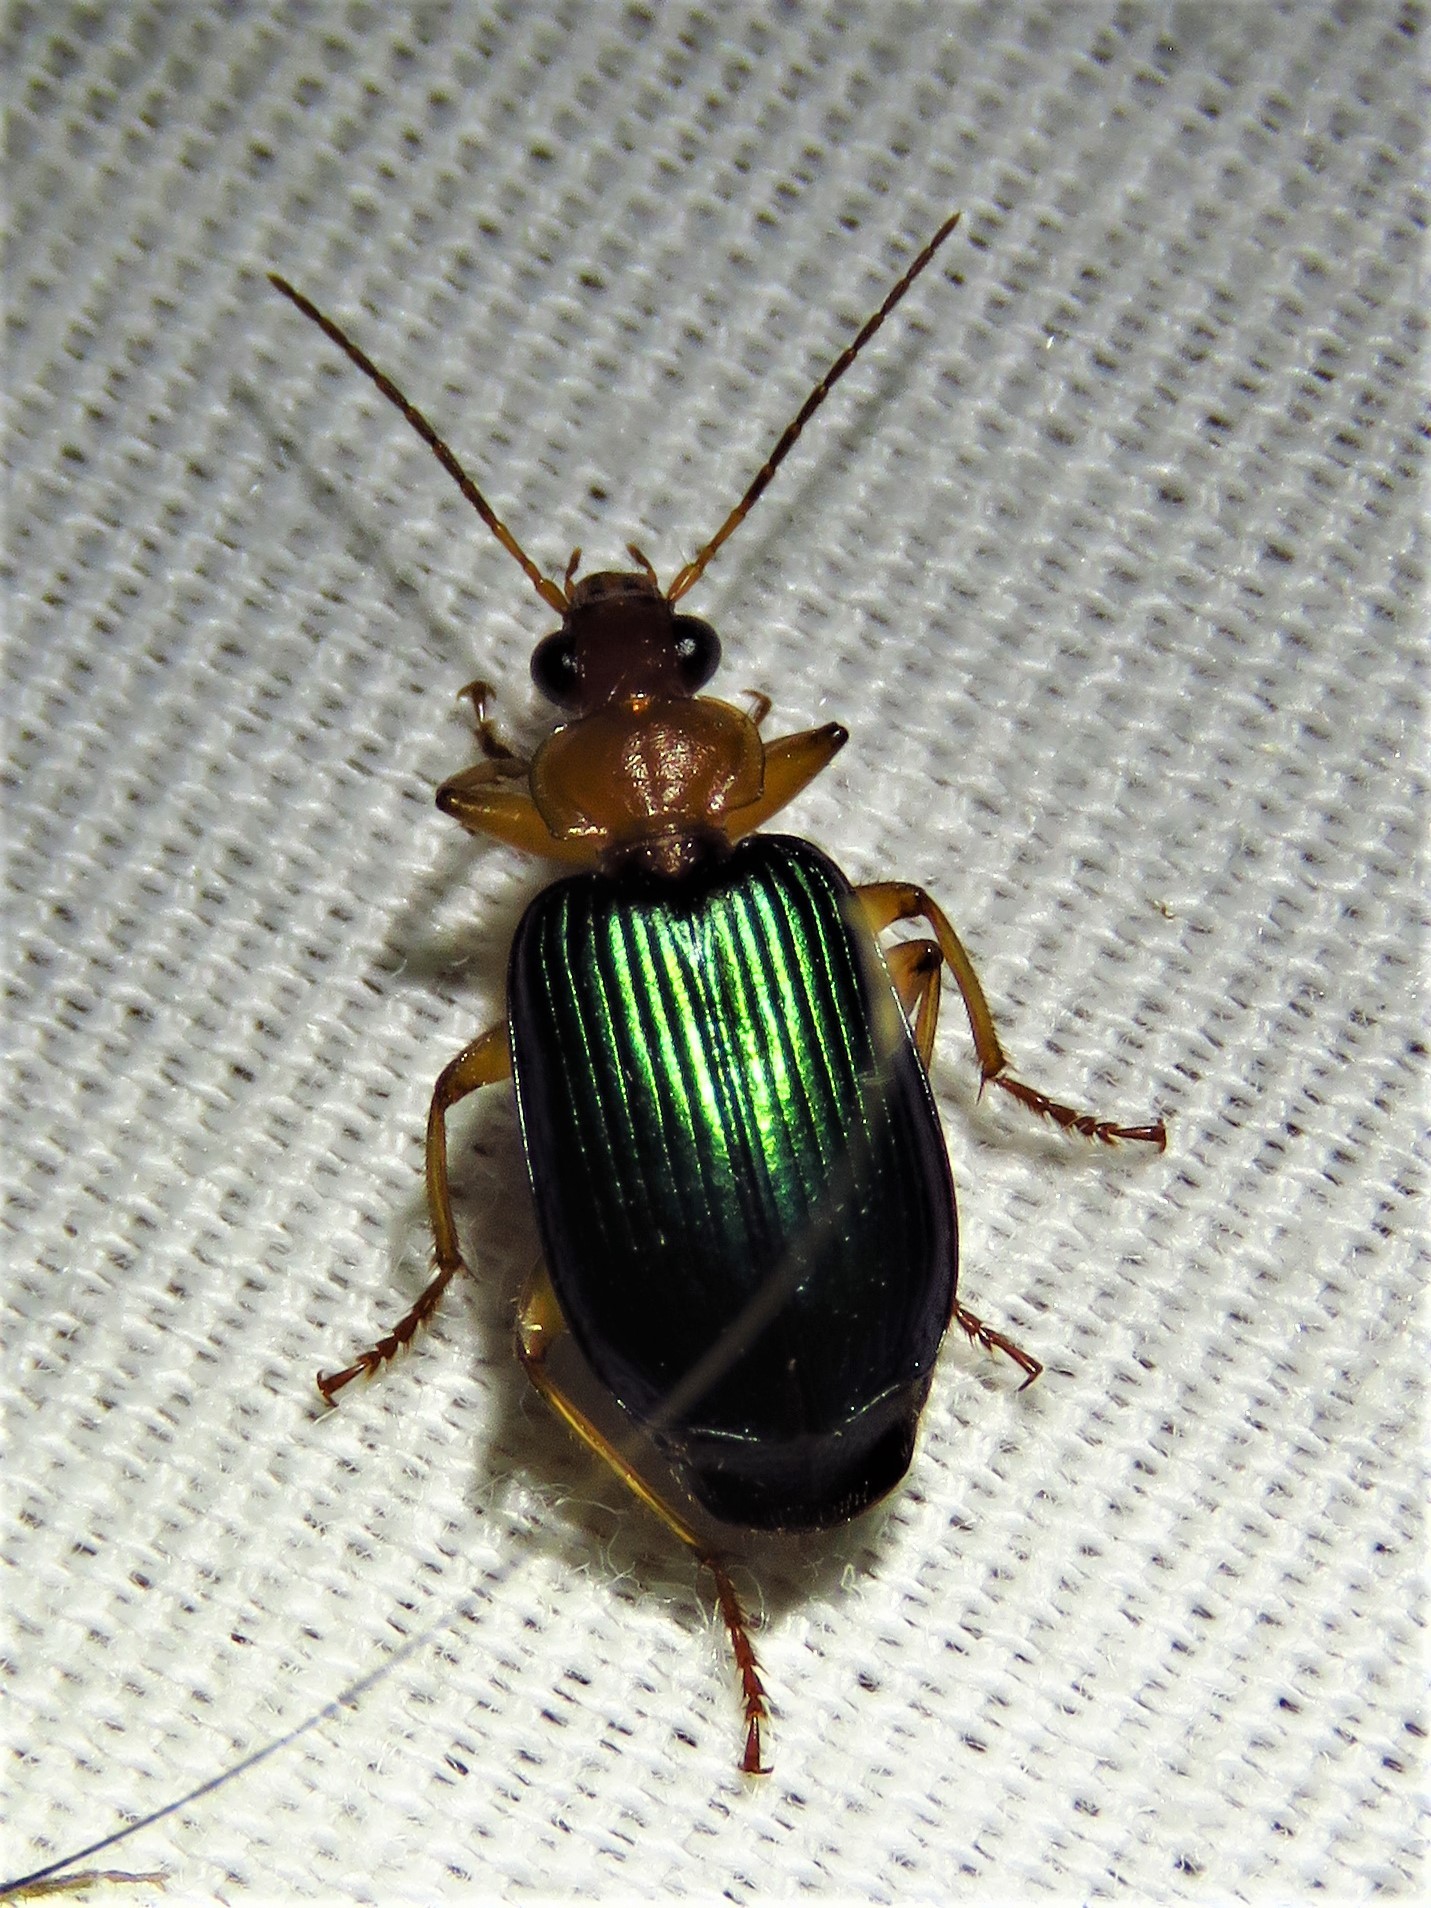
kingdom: Animalia
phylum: Arthropoda
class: Insecta
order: Coleoptera
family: Carabidae
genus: Lebia
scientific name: Lebia grandis
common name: Large foliage ground beetle
